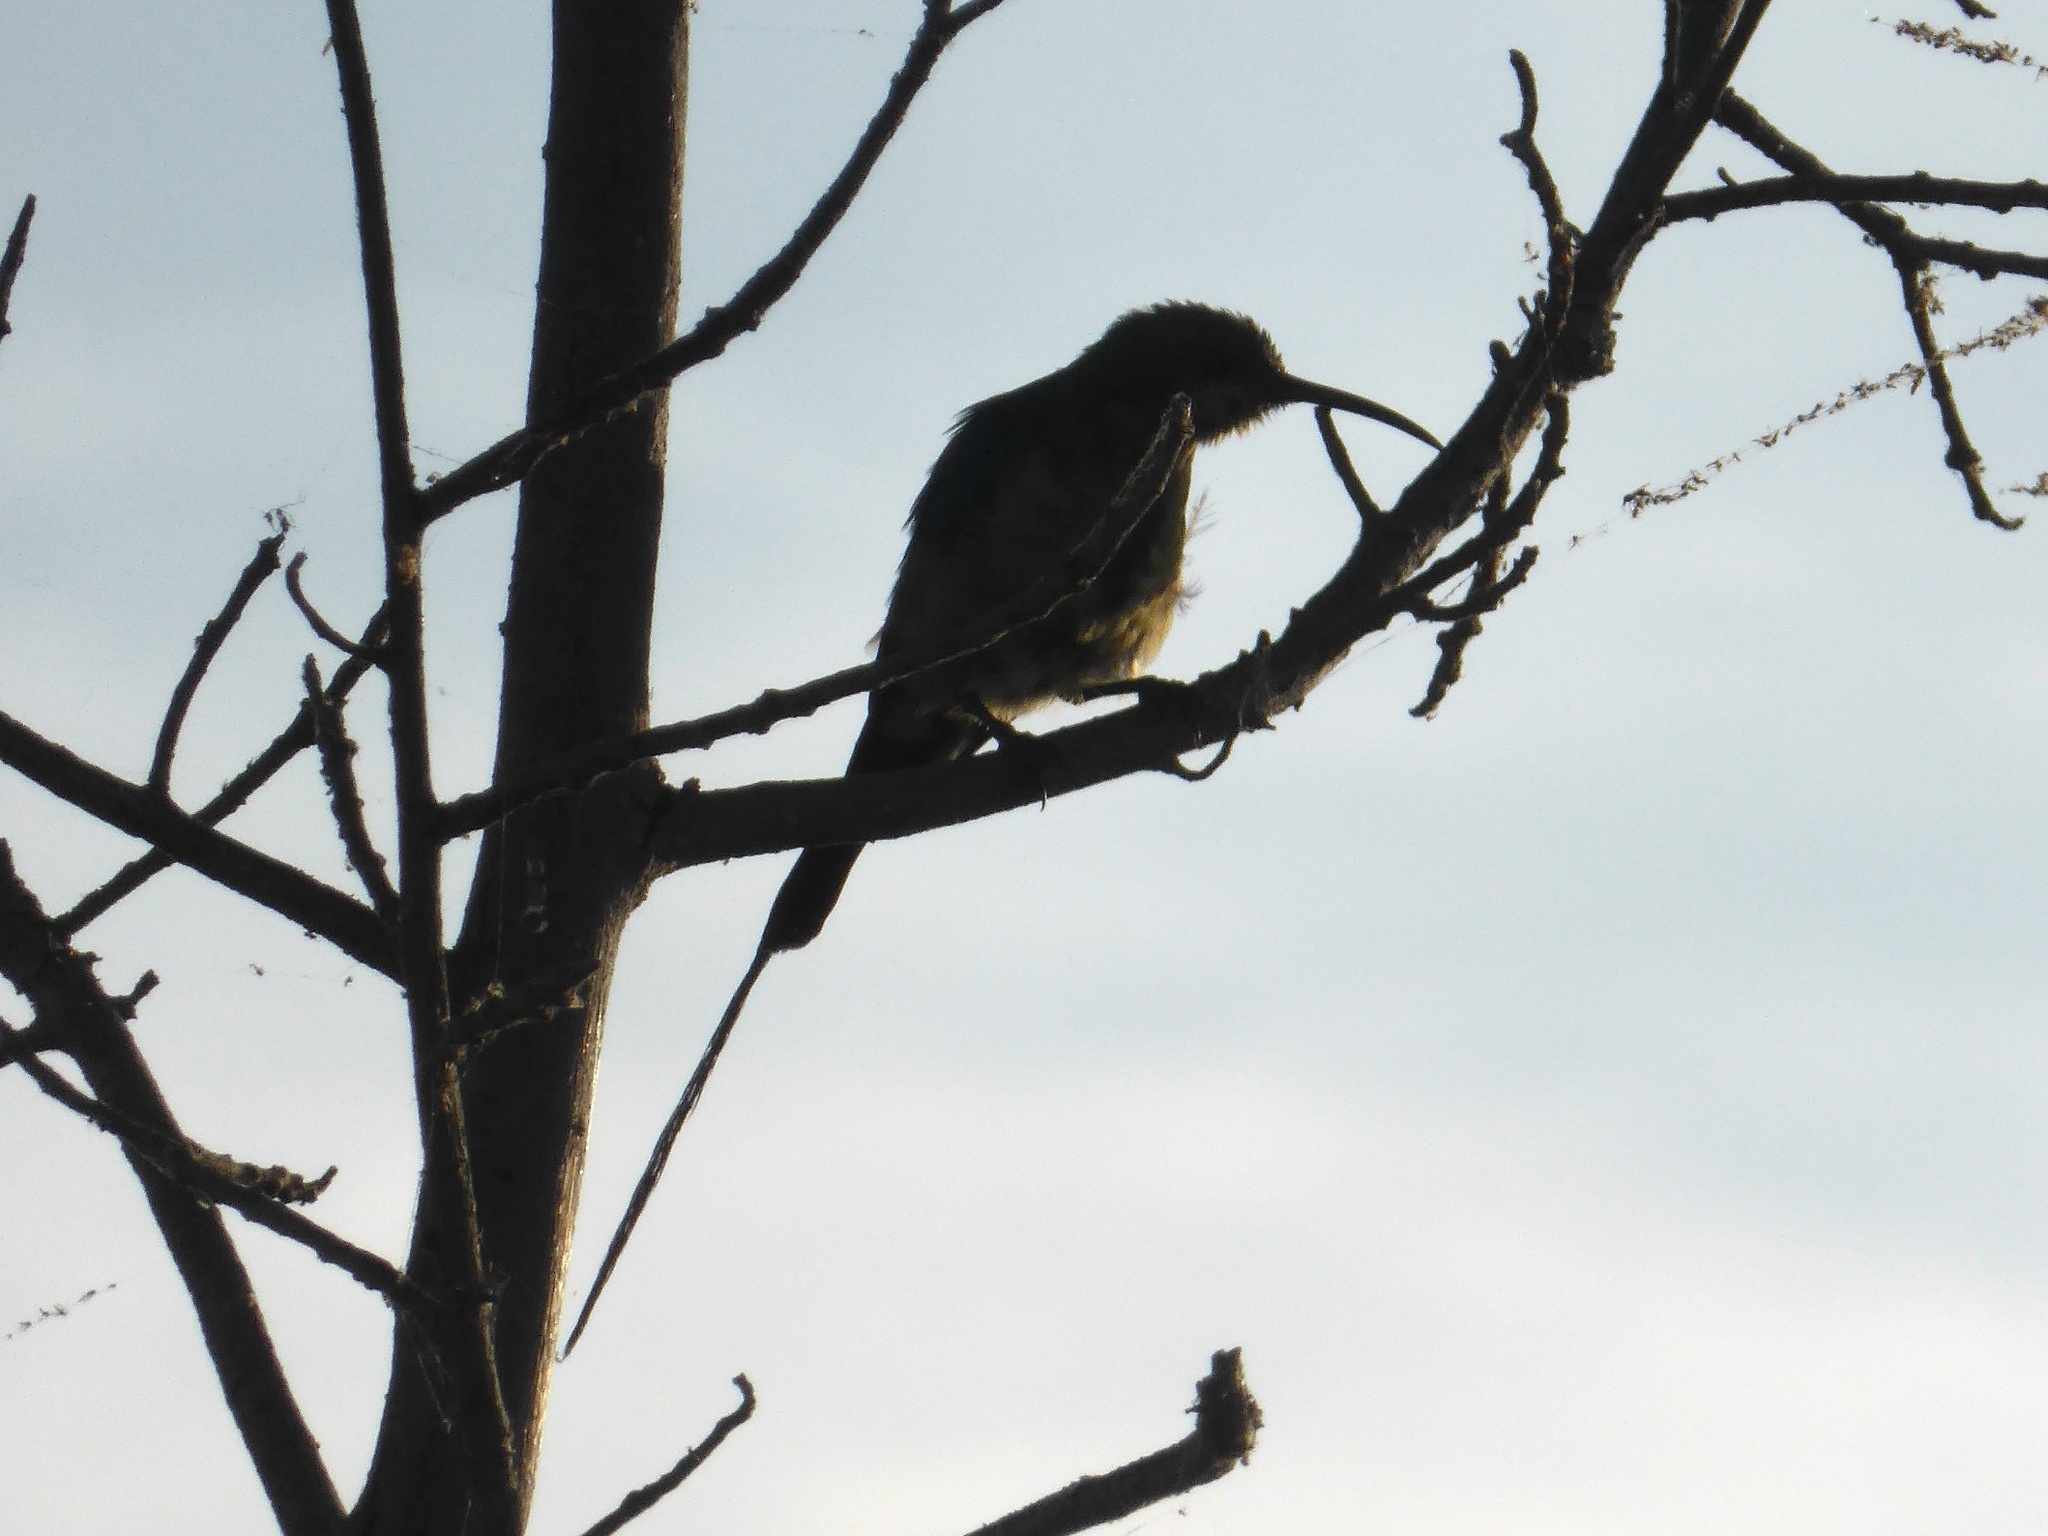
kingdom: Animalia
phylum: Chordata
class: Aves
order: Passeriformes
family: Nectariniidae
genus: Nectarinia
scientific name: Nectarinia famosa
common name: Malachite sunbird
